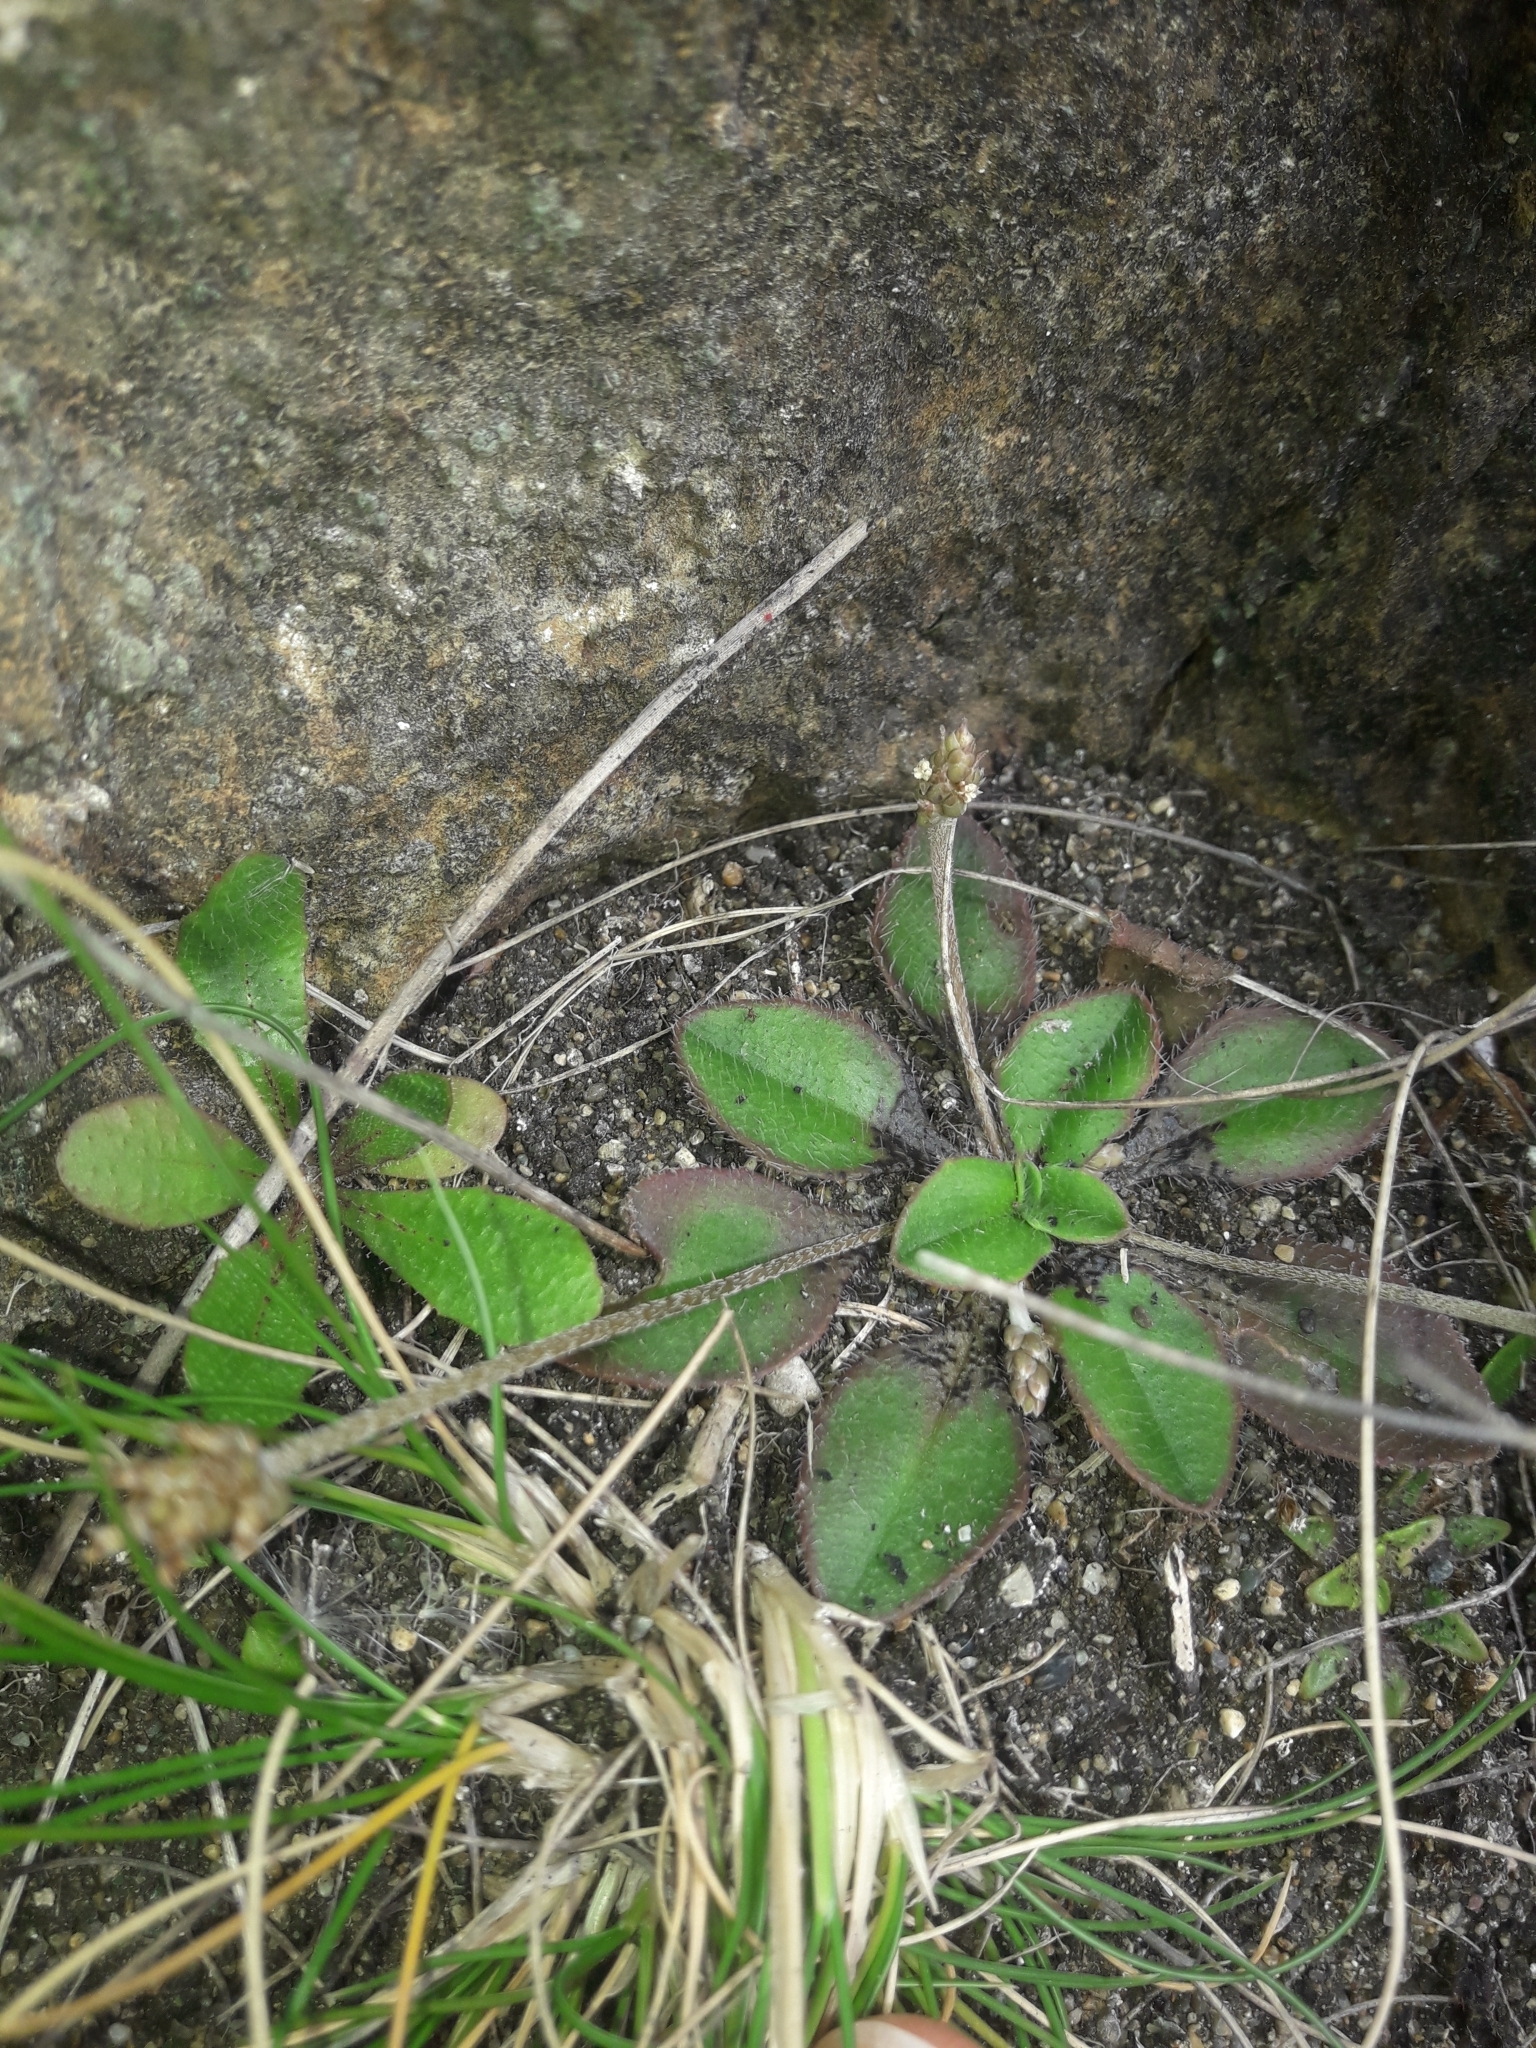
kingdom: Plantae
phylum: Tracheophyta
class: Magnoliopsida
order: Lamiales
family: Plantaginaceae
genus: Plantago
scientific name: Plantago raoulii
